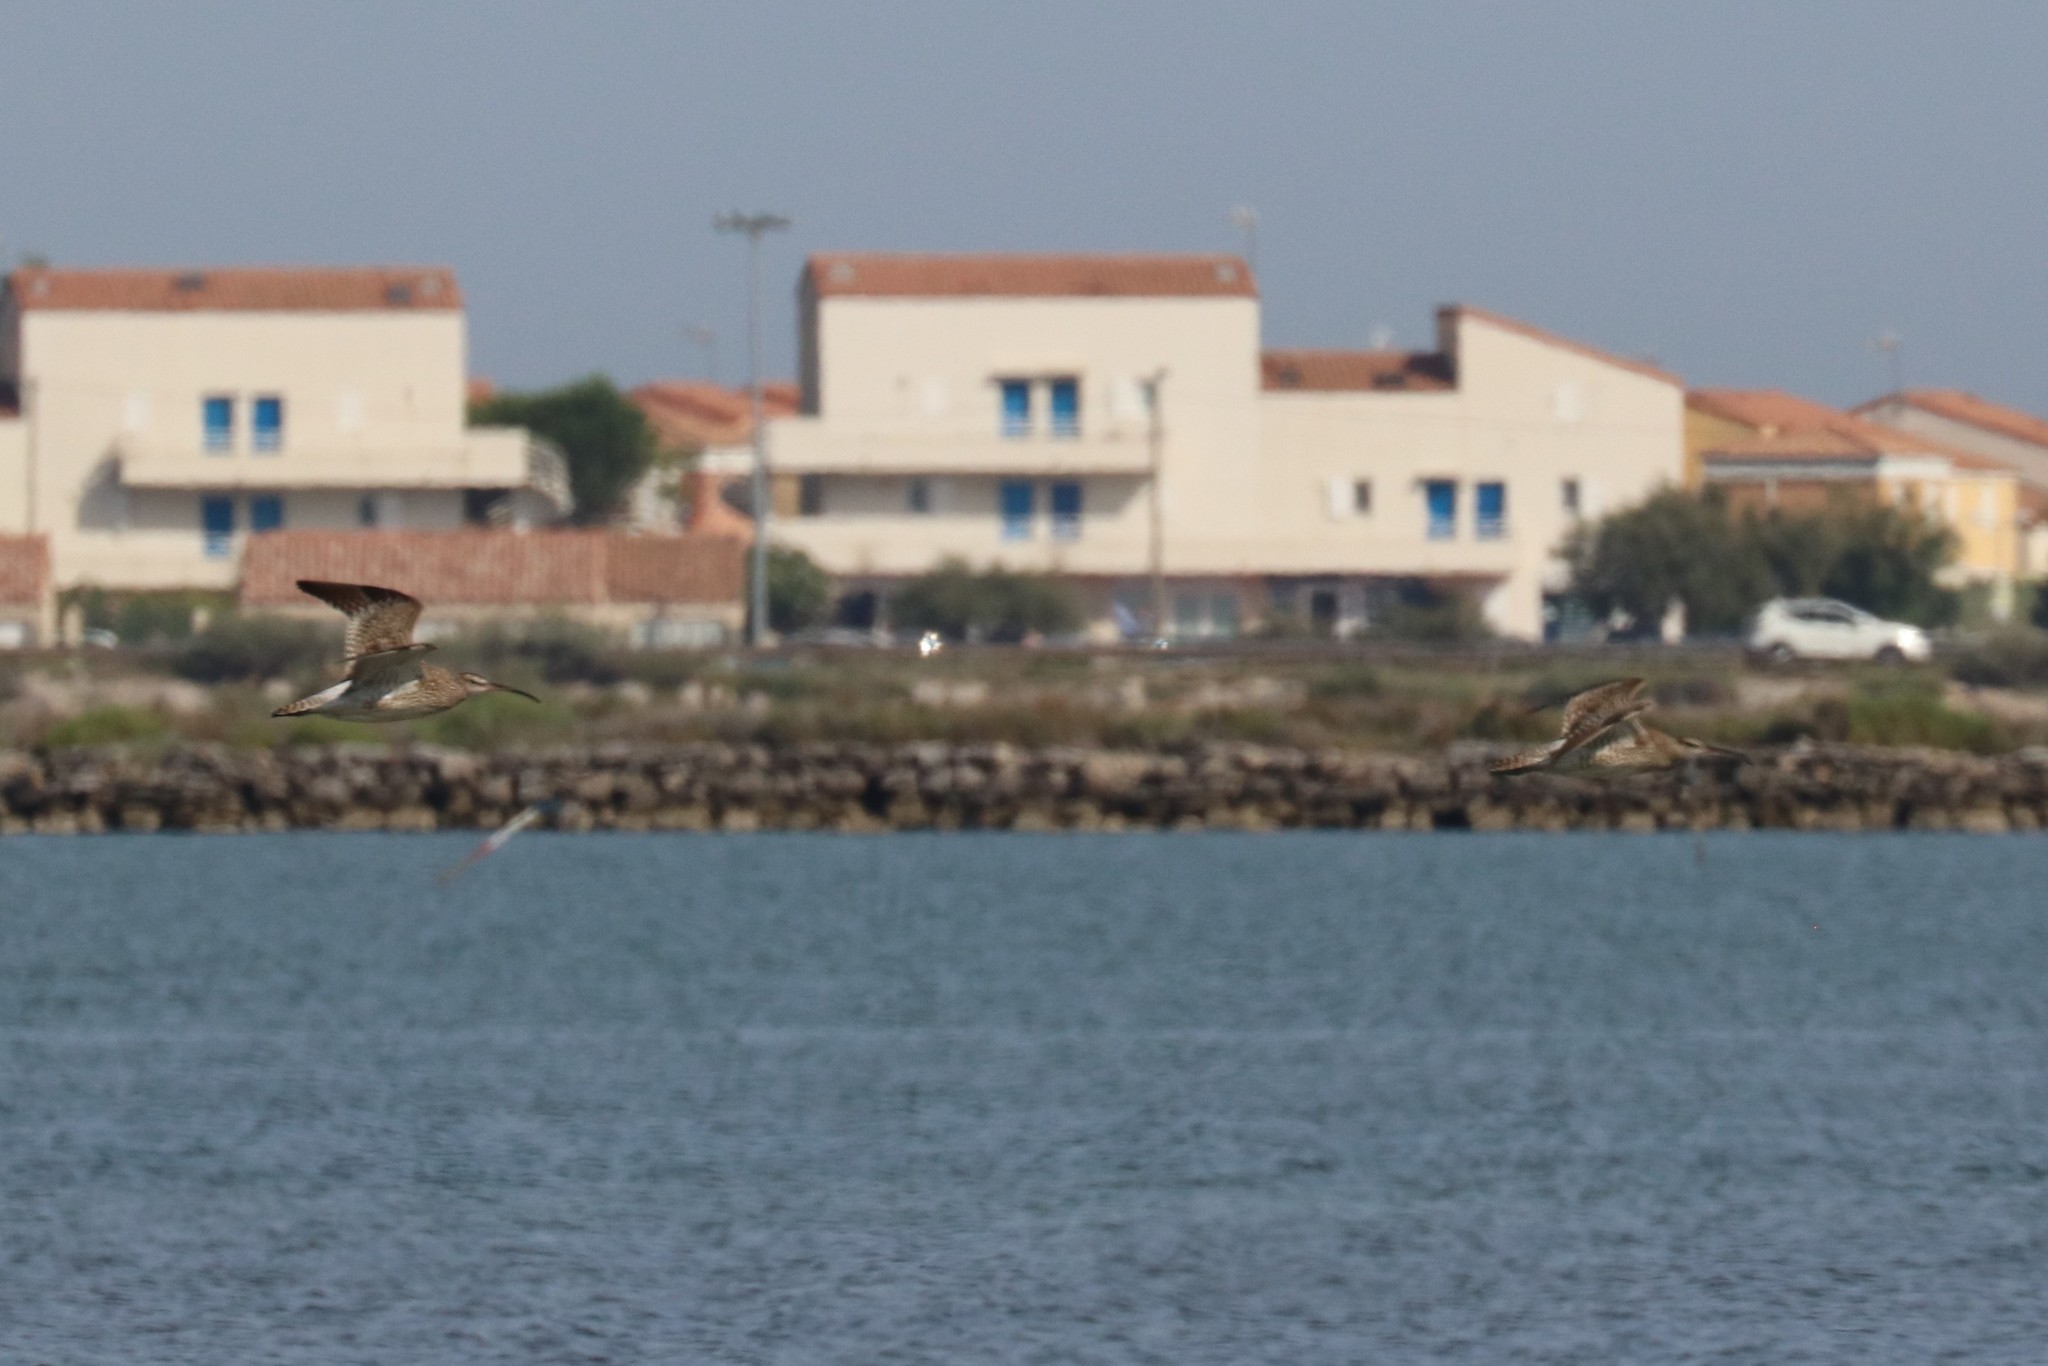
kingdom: Animalia
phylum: Chordata
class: Aves
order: Charadriiformes
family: Scolopacidae
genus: Numenius
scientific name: Numenius phaeopus
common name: Whimbrel
